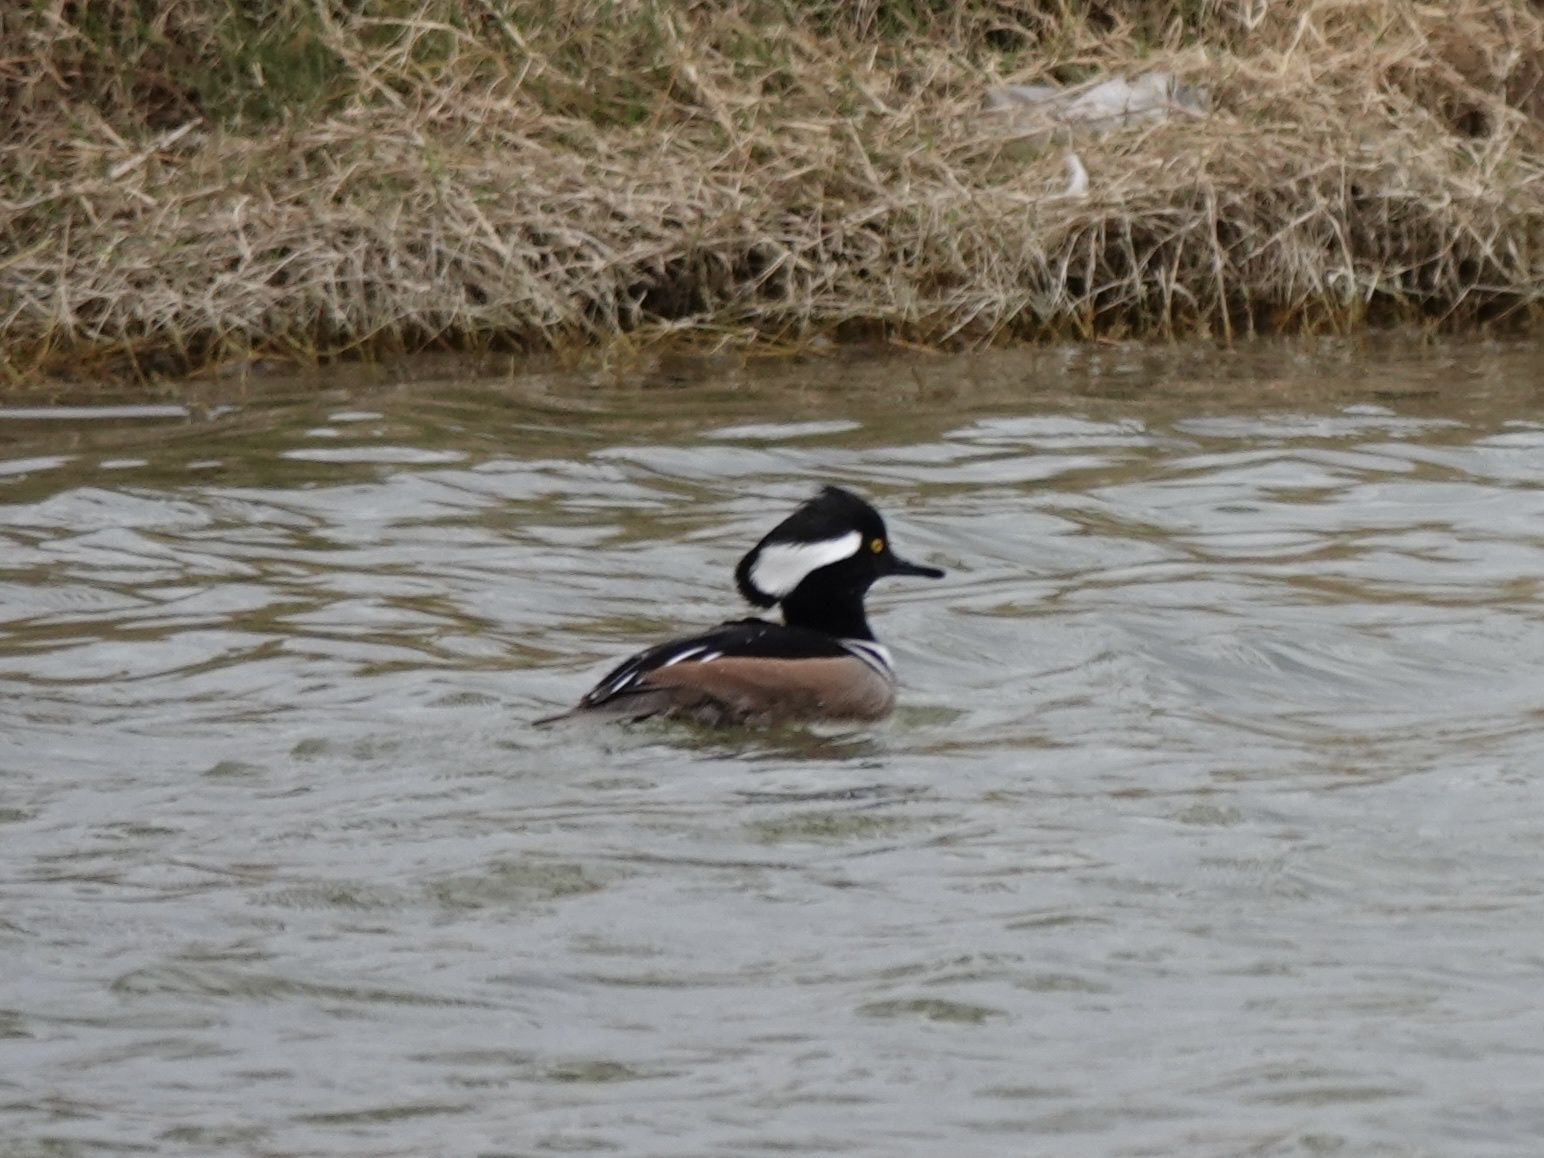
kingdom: Animalia
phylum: Chordata
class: Aves
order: Anseriformes
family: Anatidae
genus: Lophodytes
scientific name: Lophodytes cucullatus
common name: Hooded merganser
